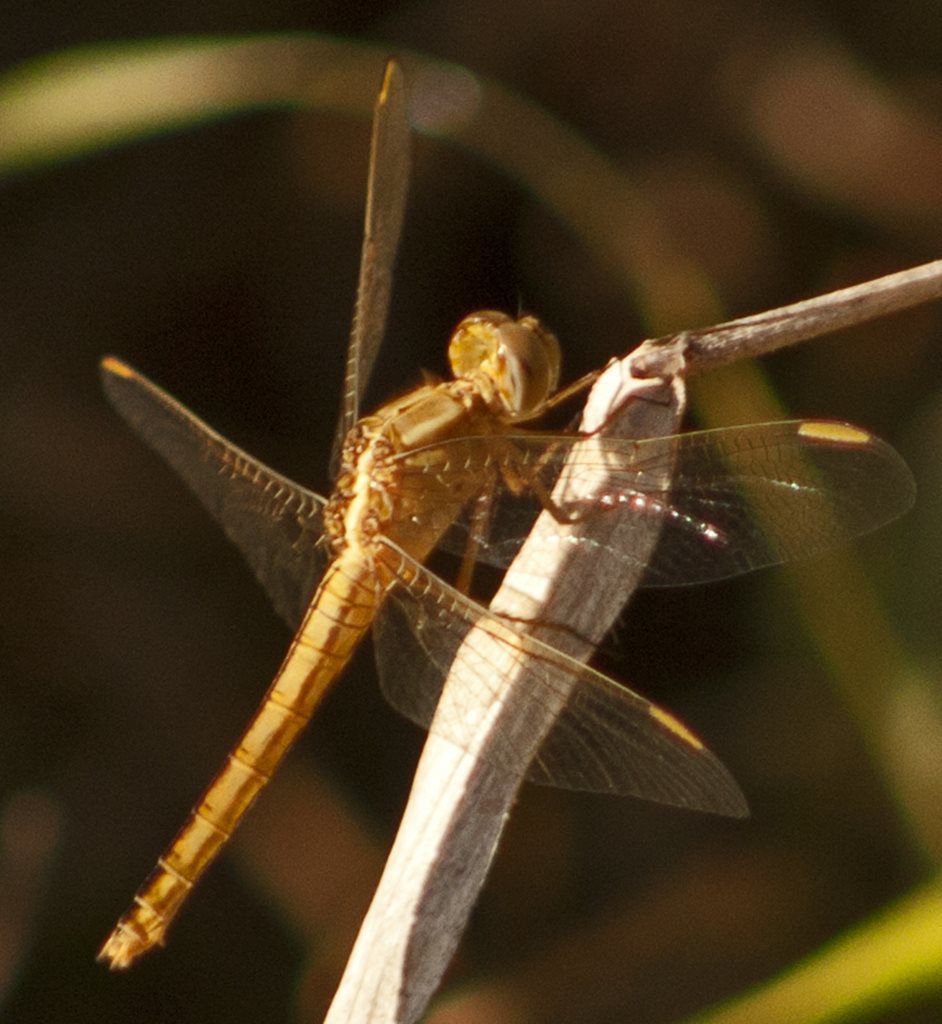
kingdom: Animalia
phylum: Arthropoda
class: Insecta
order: Odonata
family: Libellulidae
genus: Diplacodes
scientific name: Diplacodes haematodes
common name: Scarlet percher
